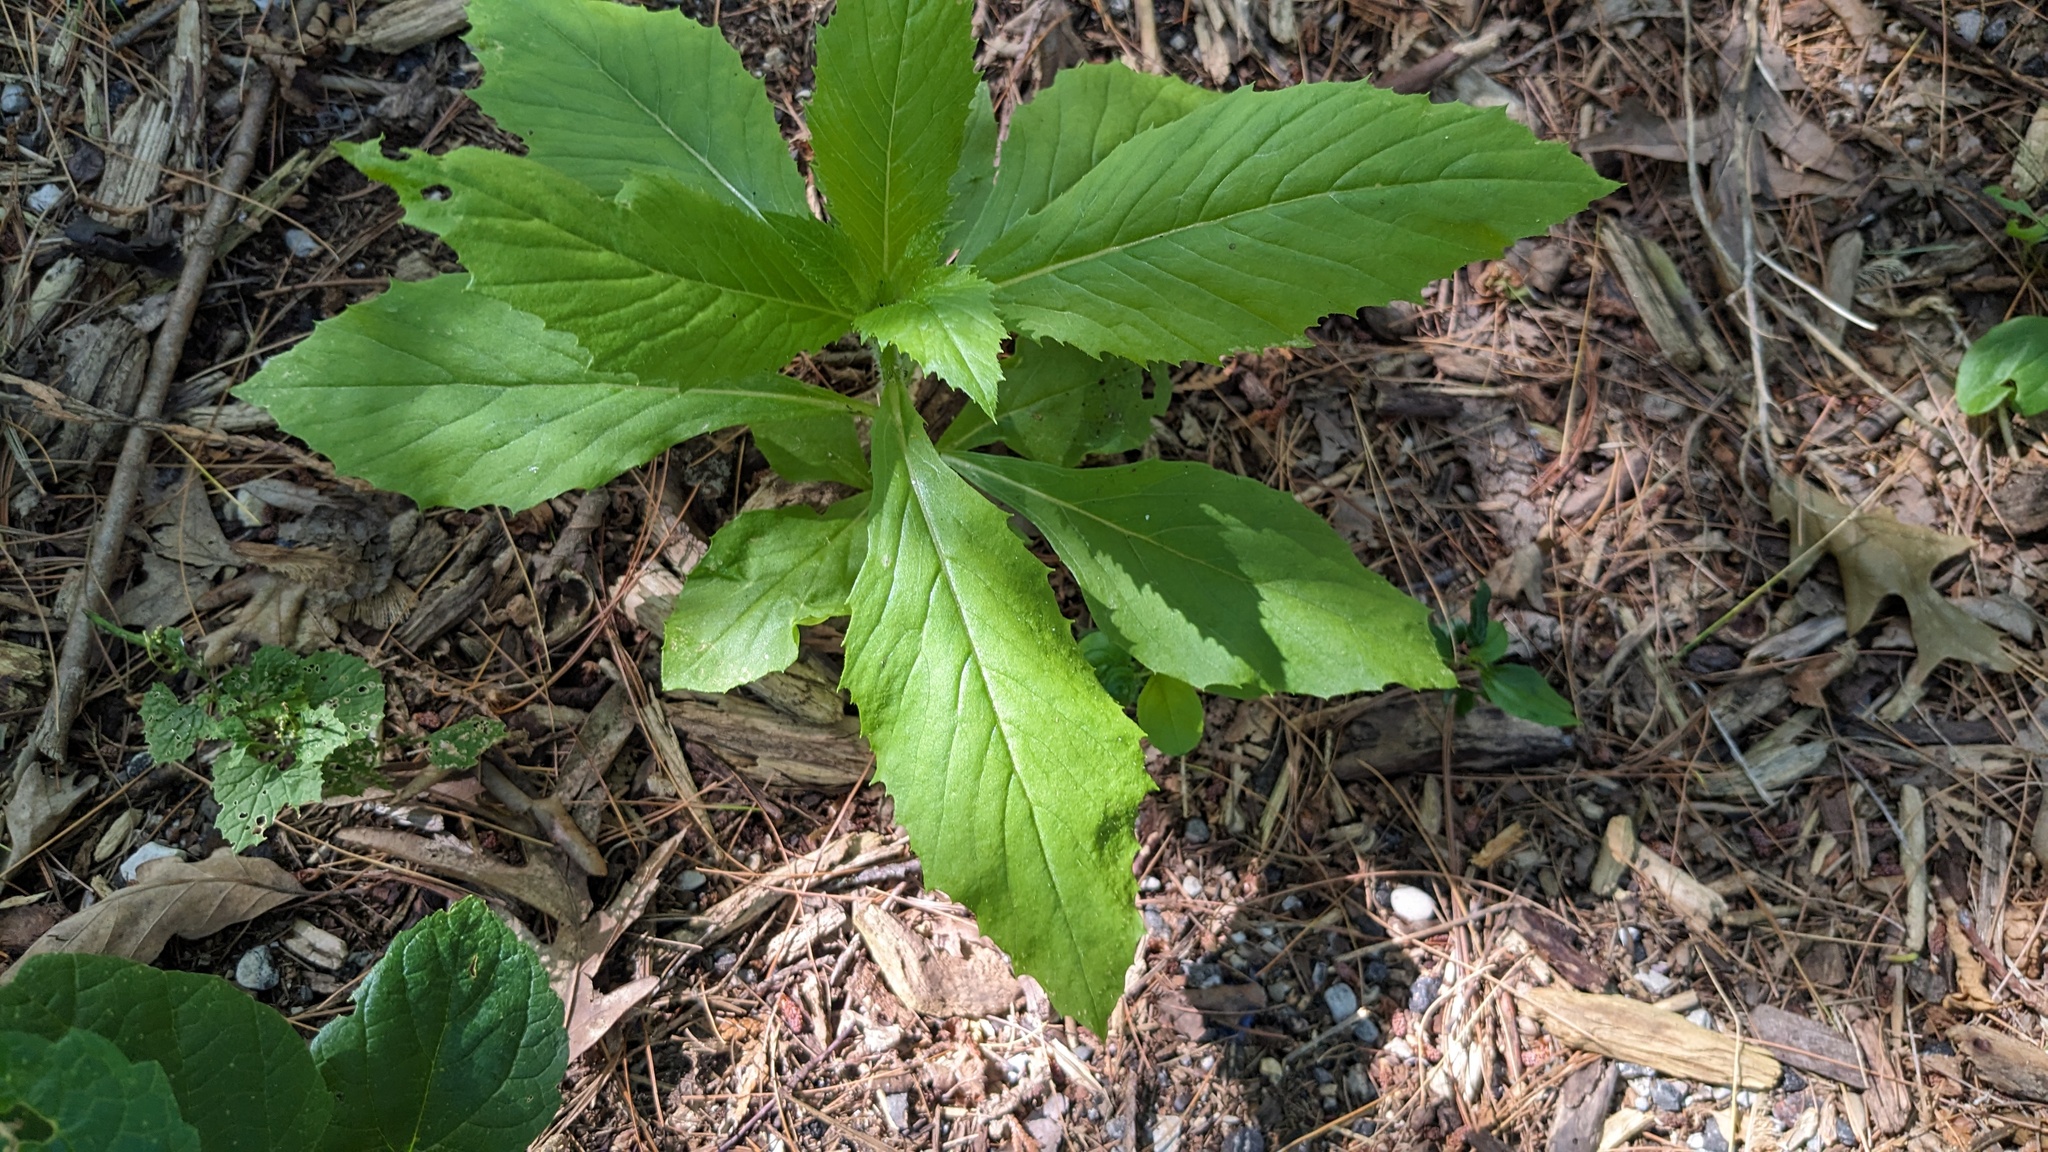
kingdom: Plantae
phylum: Tracheophyta
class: Magnoliopsida
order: Asterales
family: Asteraceae
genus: Erechtites
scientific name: Erechtites hieraciifolius
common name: American burnweed
